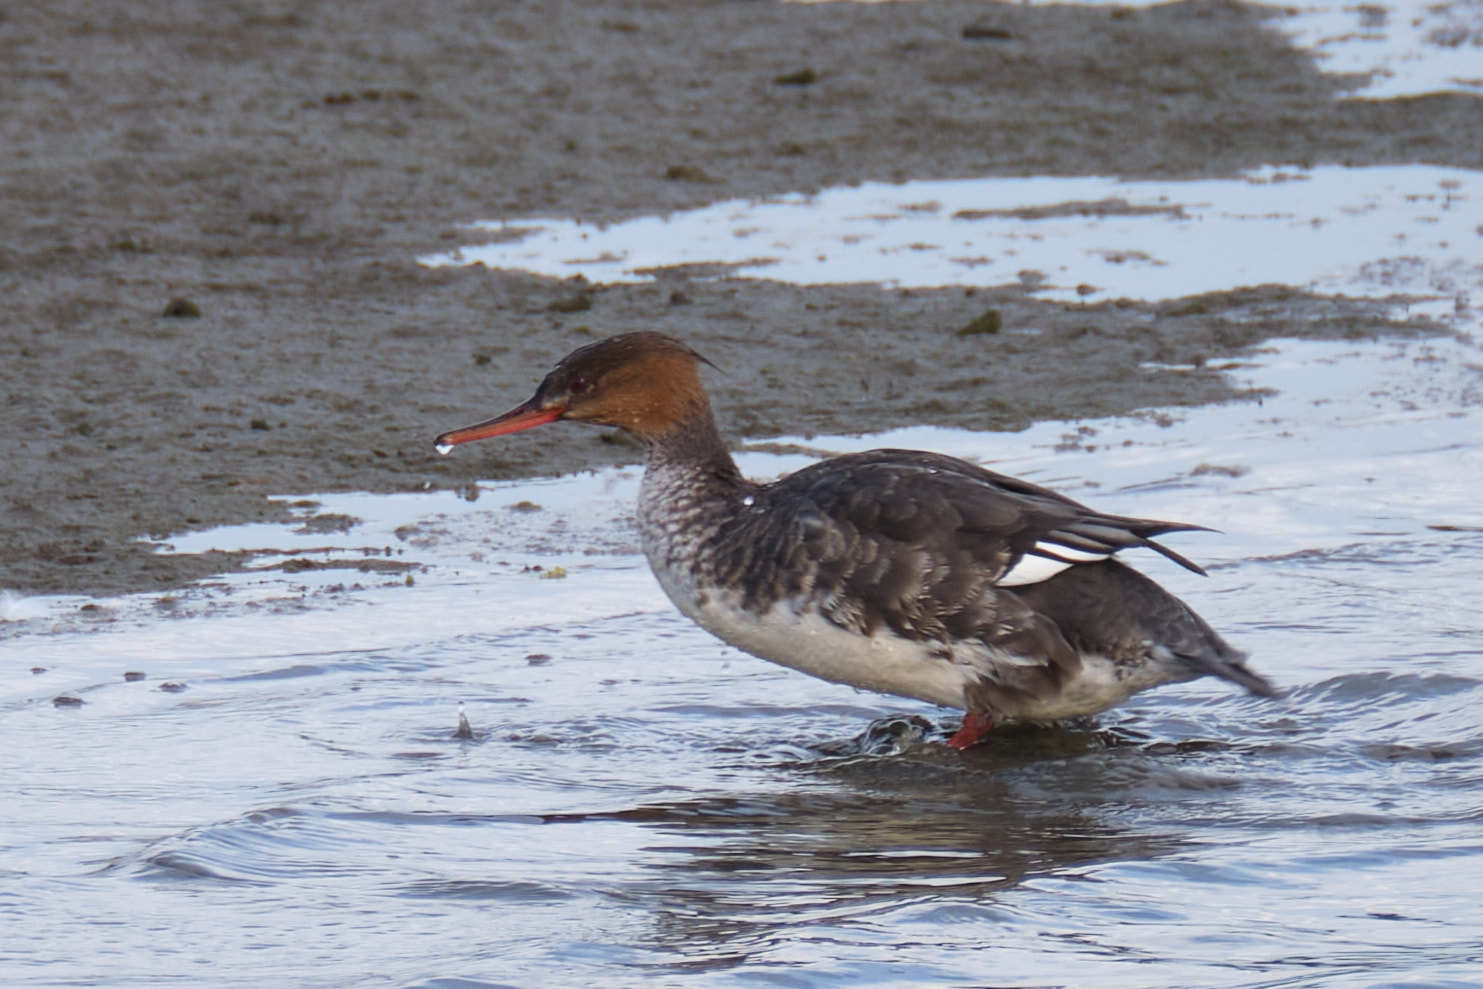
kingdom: Animalia
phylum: Chordata
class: Aves
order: Anseriformes
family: Anatidae
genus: Mergus
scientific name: Mergus serrator
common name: Red-breasted merganser
